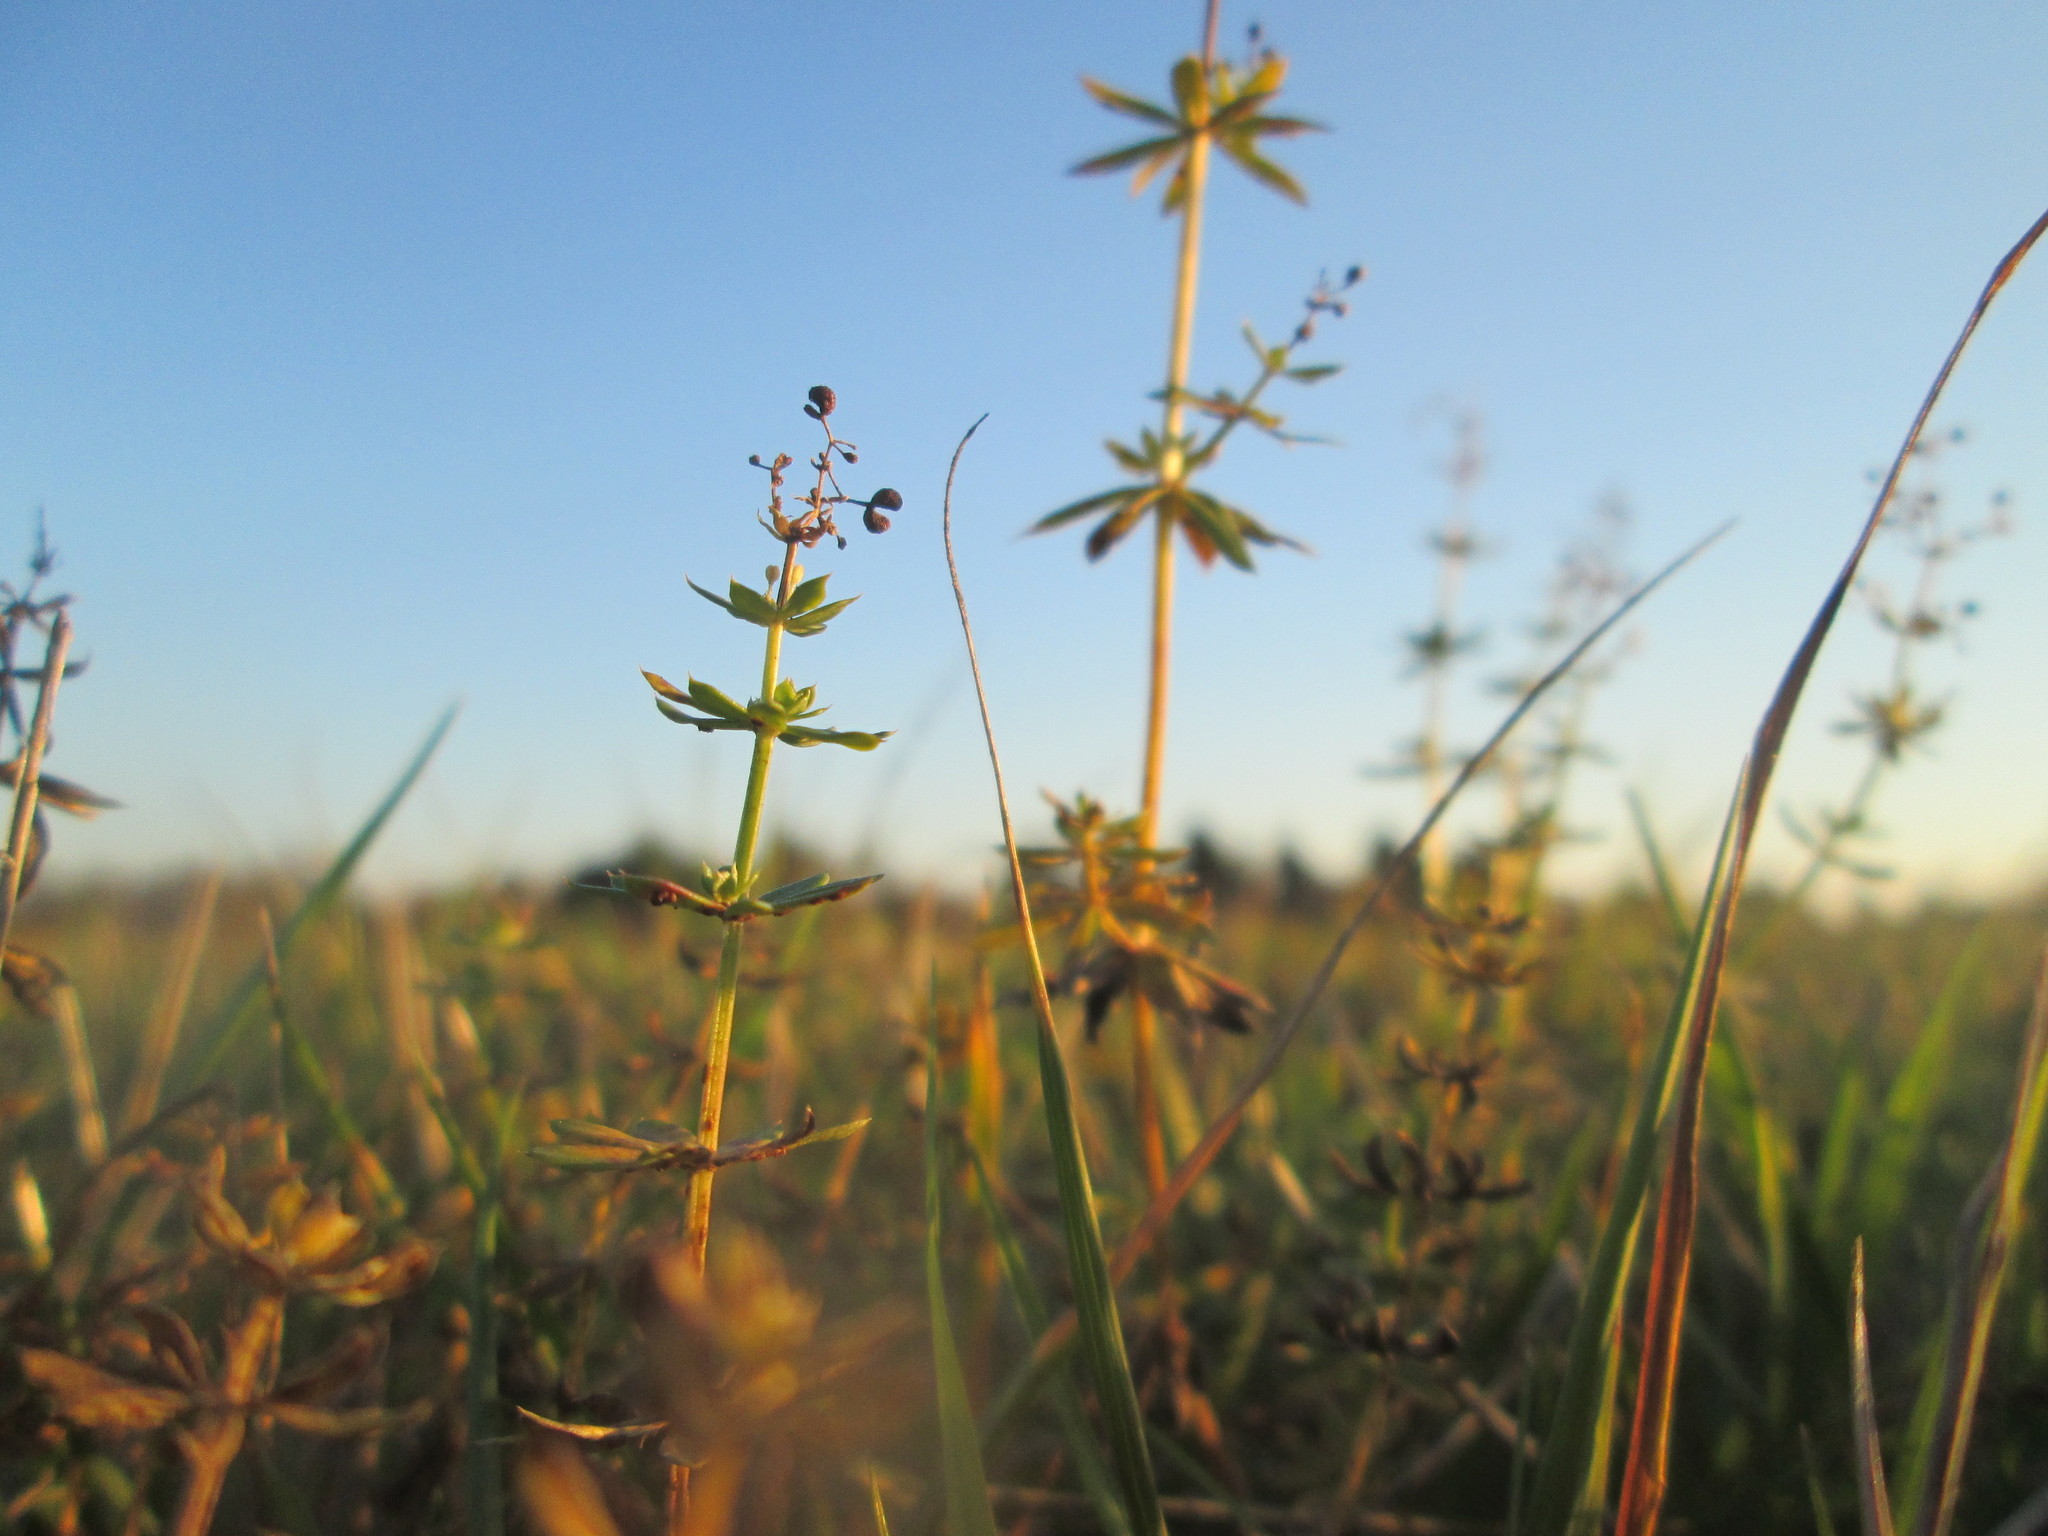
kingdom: Plantae
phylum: Tracheophyta
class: Magnoliopsida
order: Gentianales
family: Rubiaceae
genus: Galium
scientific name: Galium mollugo
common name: Hedge bedstraw
